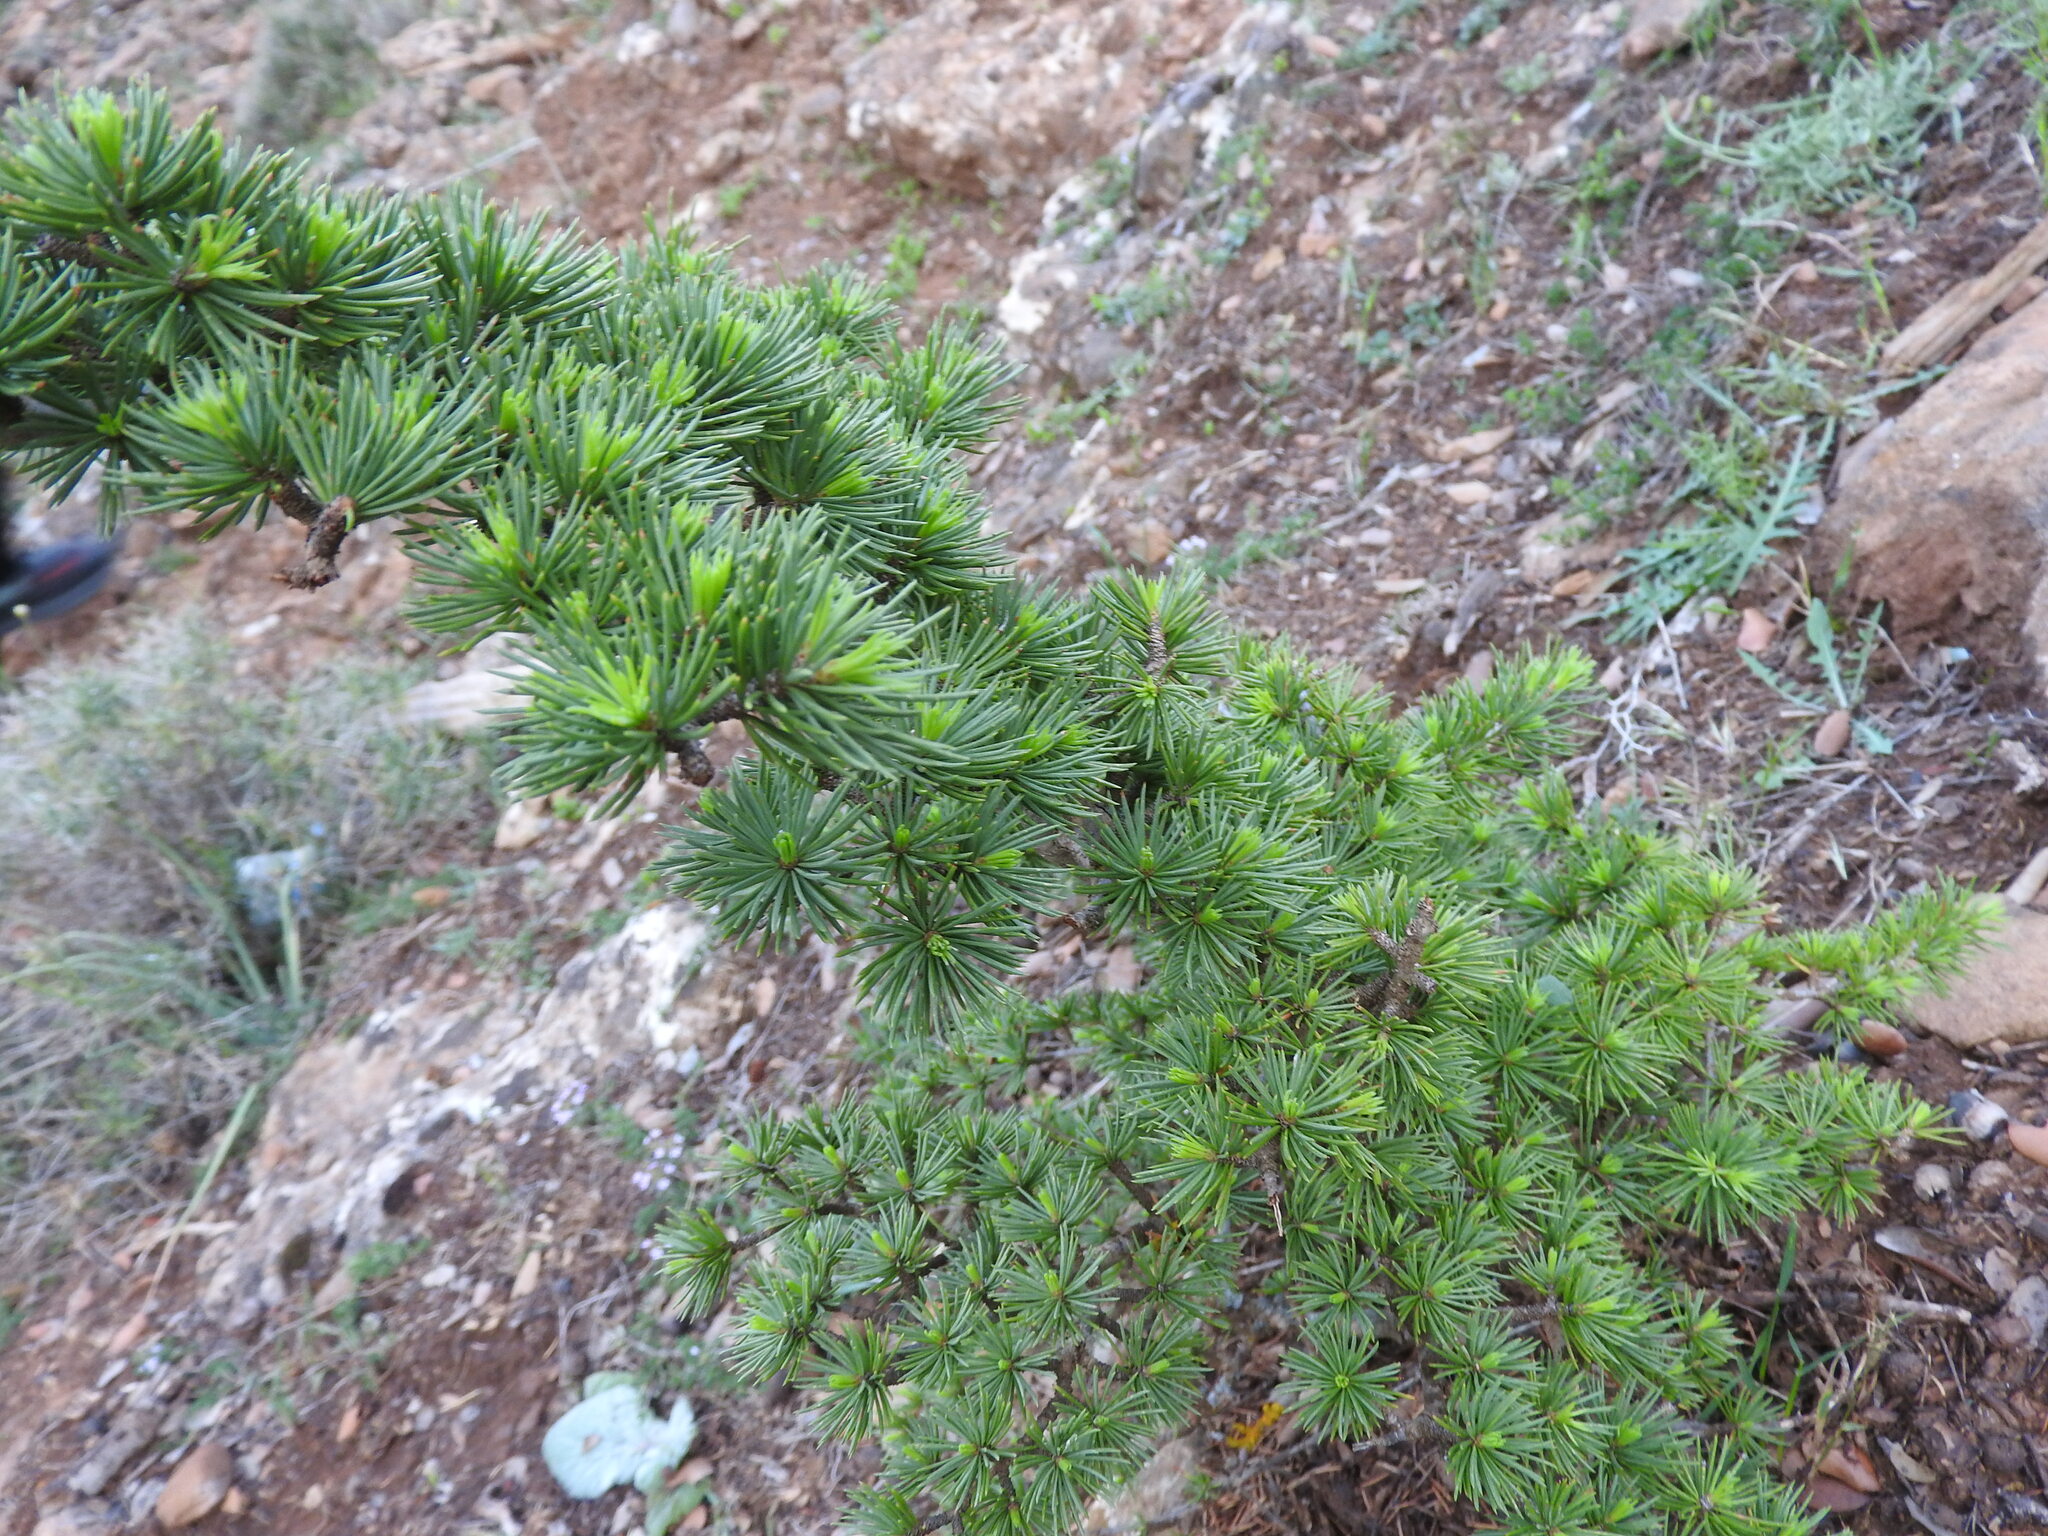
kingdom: Plantae
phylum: Tracheophyta
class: Pinopsida
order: Pinales
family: Pinaceae
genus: Cedrus
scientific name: Cedrus atlantica
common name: Atlas cedar
